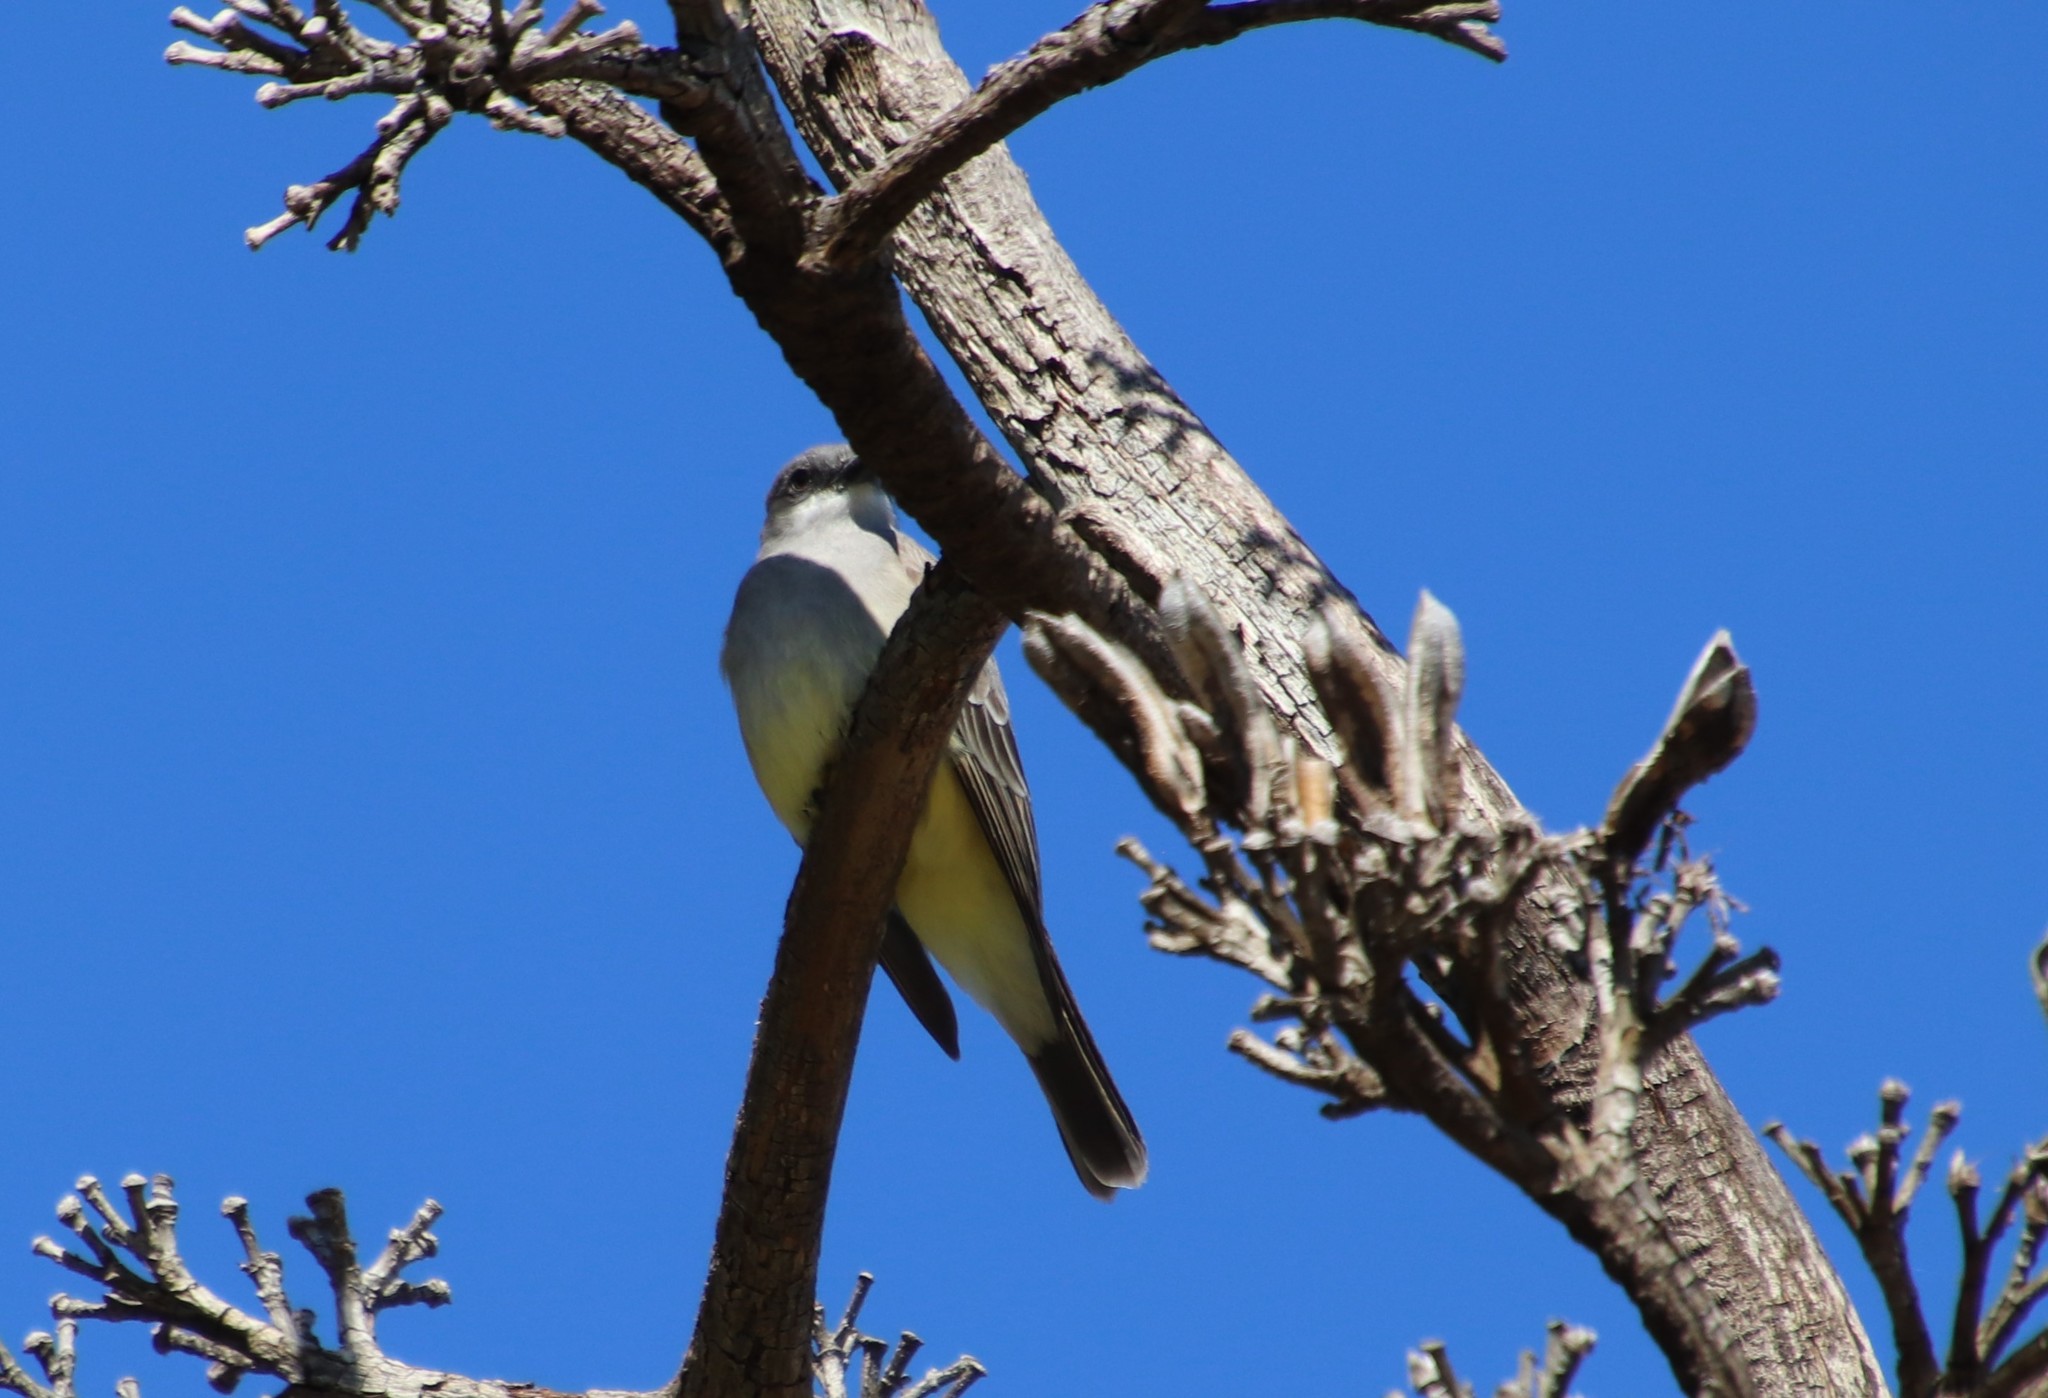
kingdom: Animalia
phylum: Chordata
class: Aves
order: Passeriformes
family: Tyrannidae
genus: Tyrannus
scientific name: Tyrannus vociferans
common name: Cassin's kingbird
